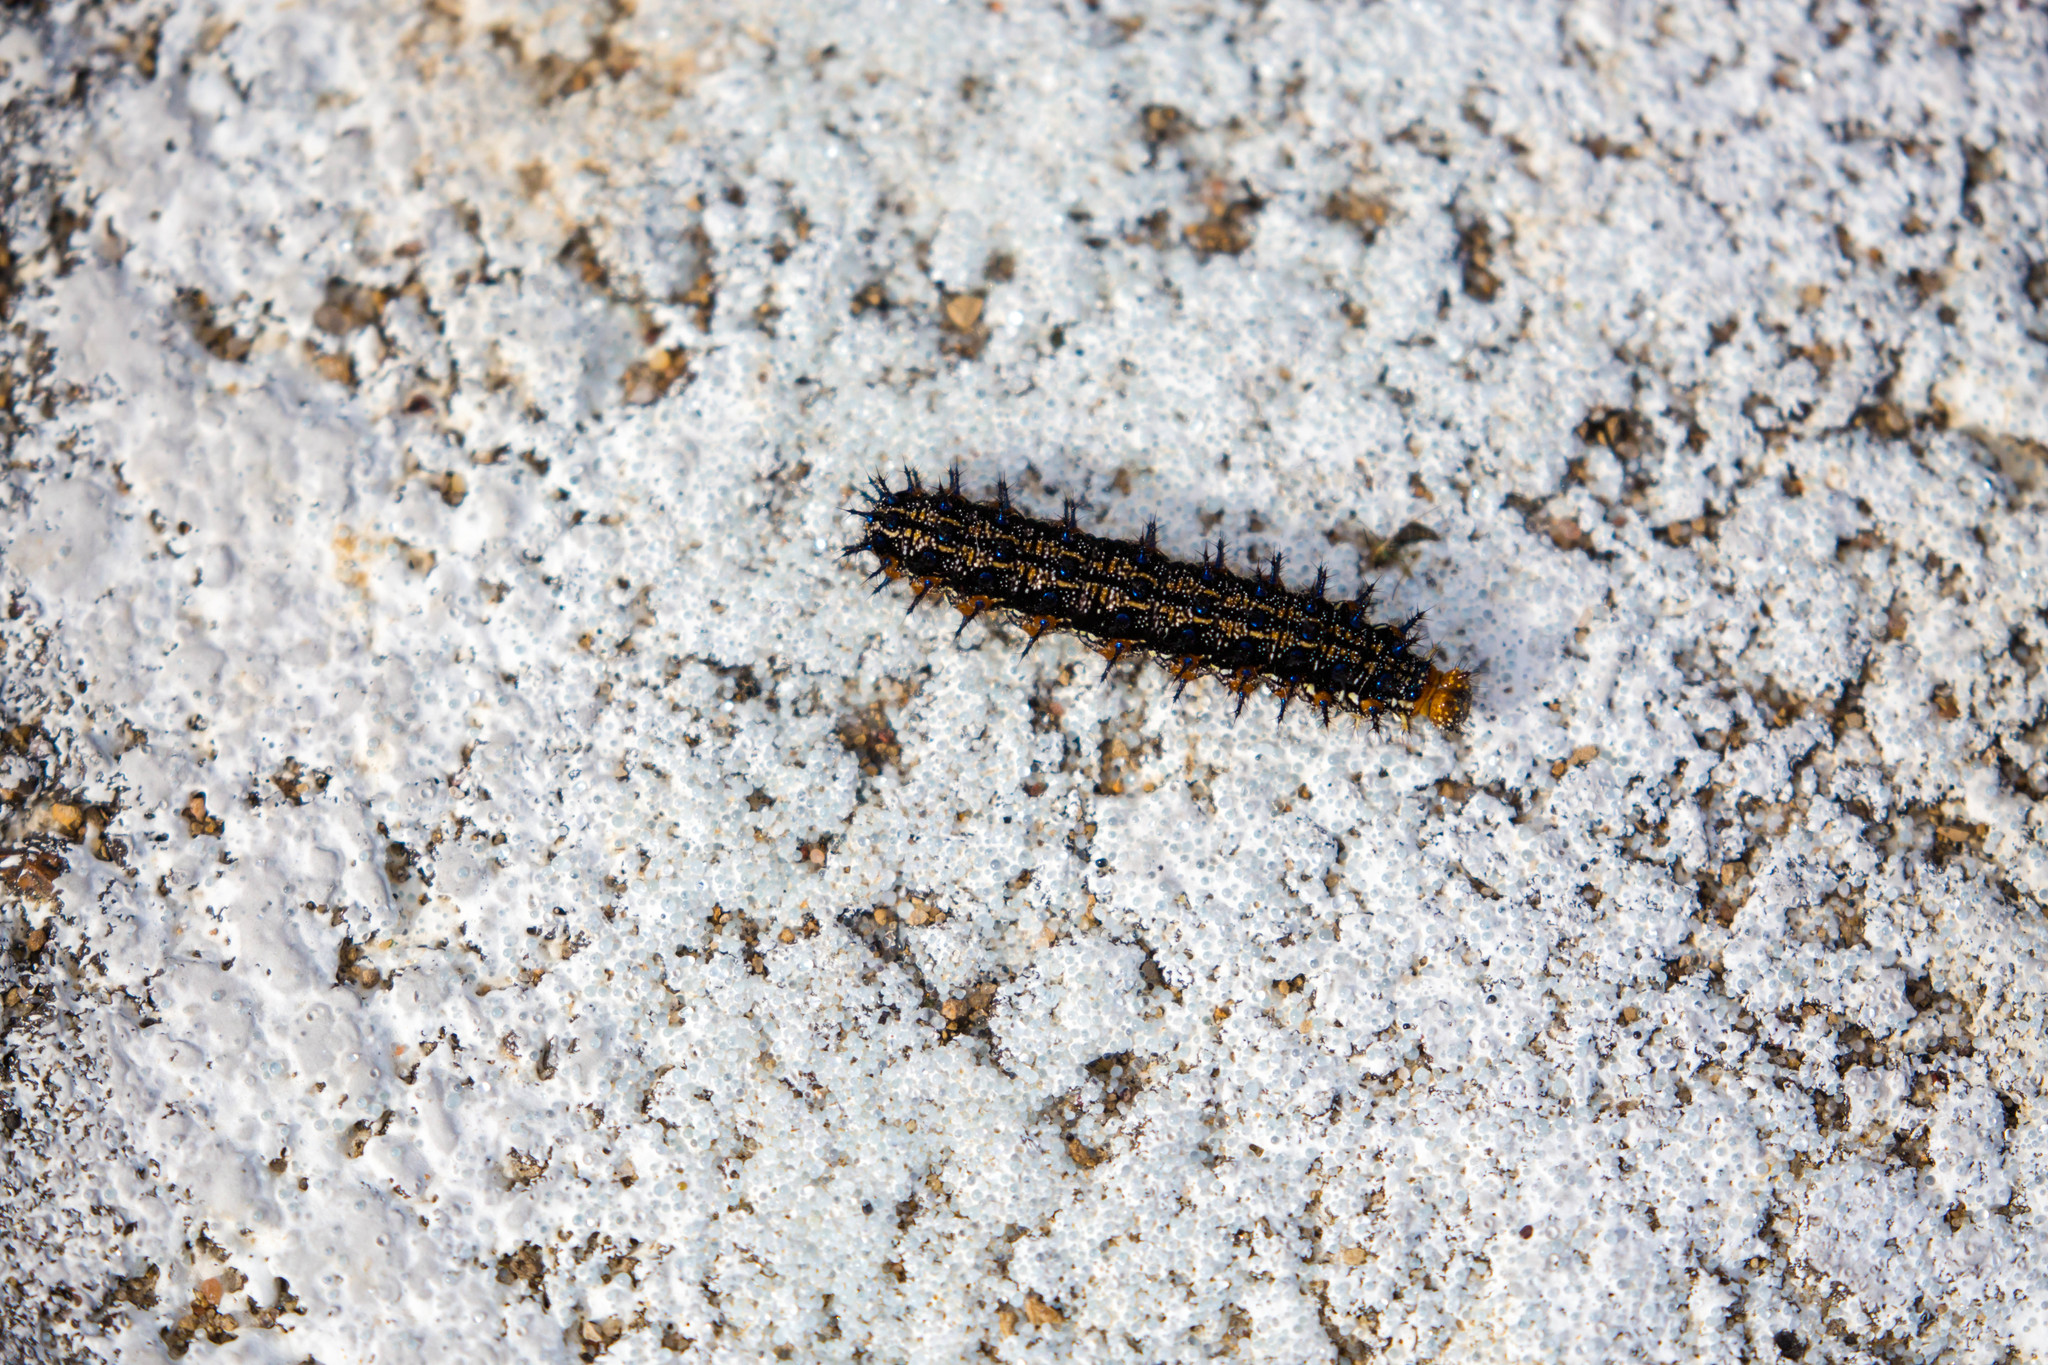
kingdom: Animalia
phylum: Arthropoda
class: Insecta
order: Lepidoptera
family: Nymphalidae
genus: Junonia
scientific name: Junonia coenia
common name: Common buckeye
